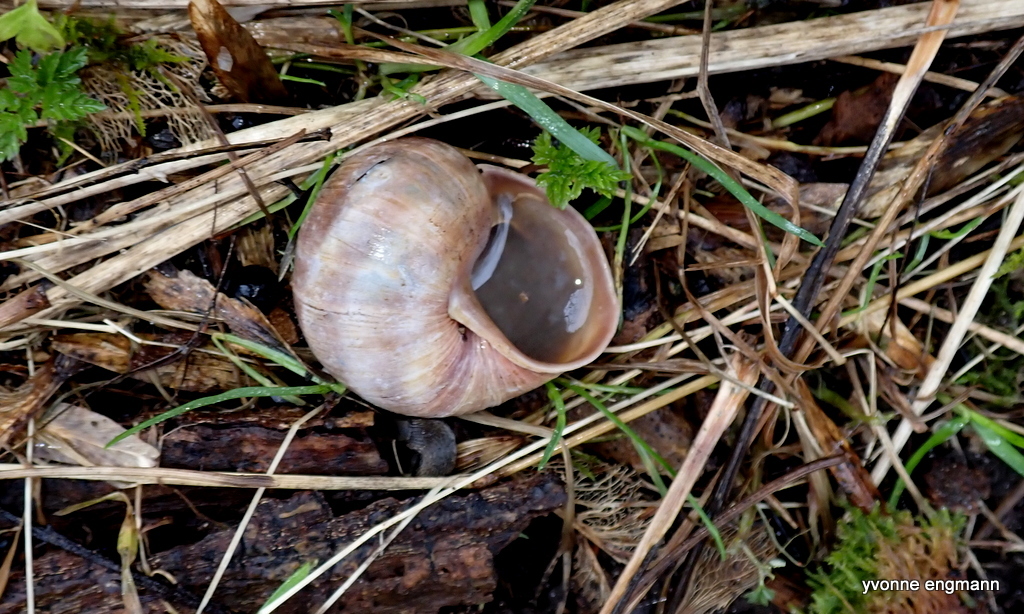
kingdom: Animalia
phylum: Mollusca
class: Gastropoda
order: Stylommatophora
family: Helicidae
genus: Helix
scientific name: Helix pomatia
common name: Roman snail
